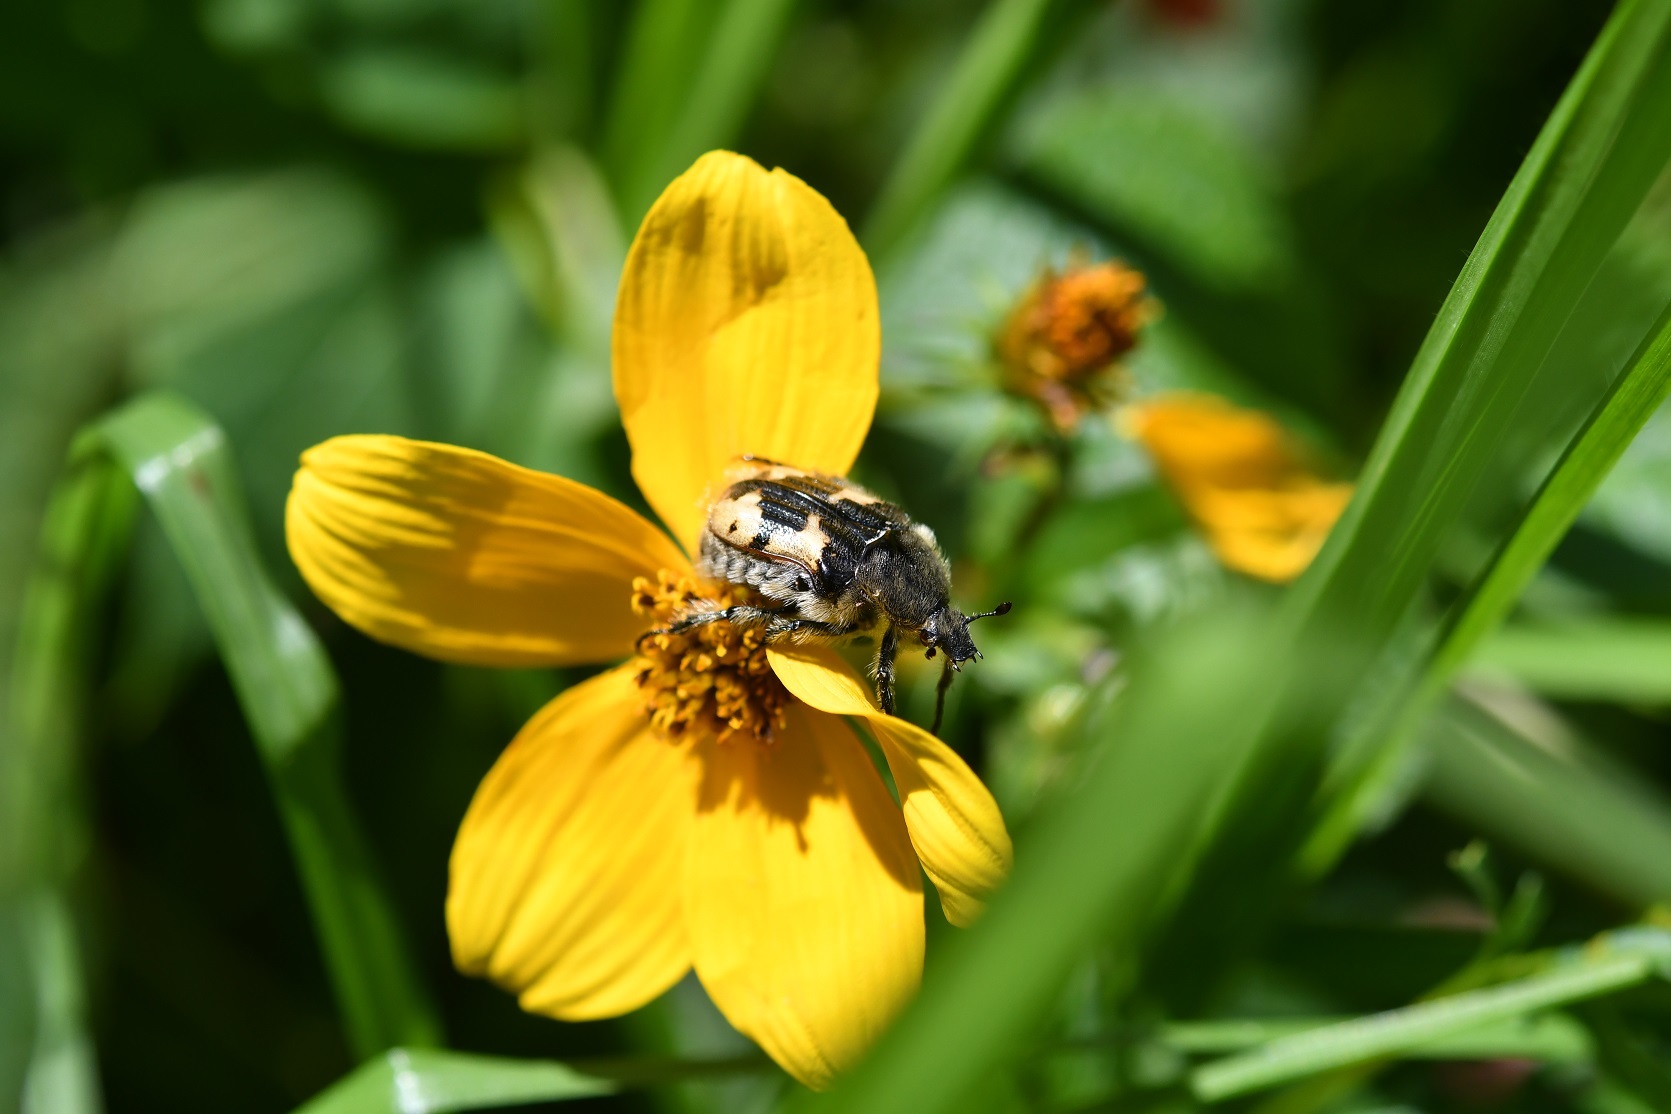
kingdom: Animalia
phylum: Arthropoda
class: Insecta
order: Coleoptera
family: Scarabaeidae
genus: Euphoria
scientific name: Euphoria basalis
